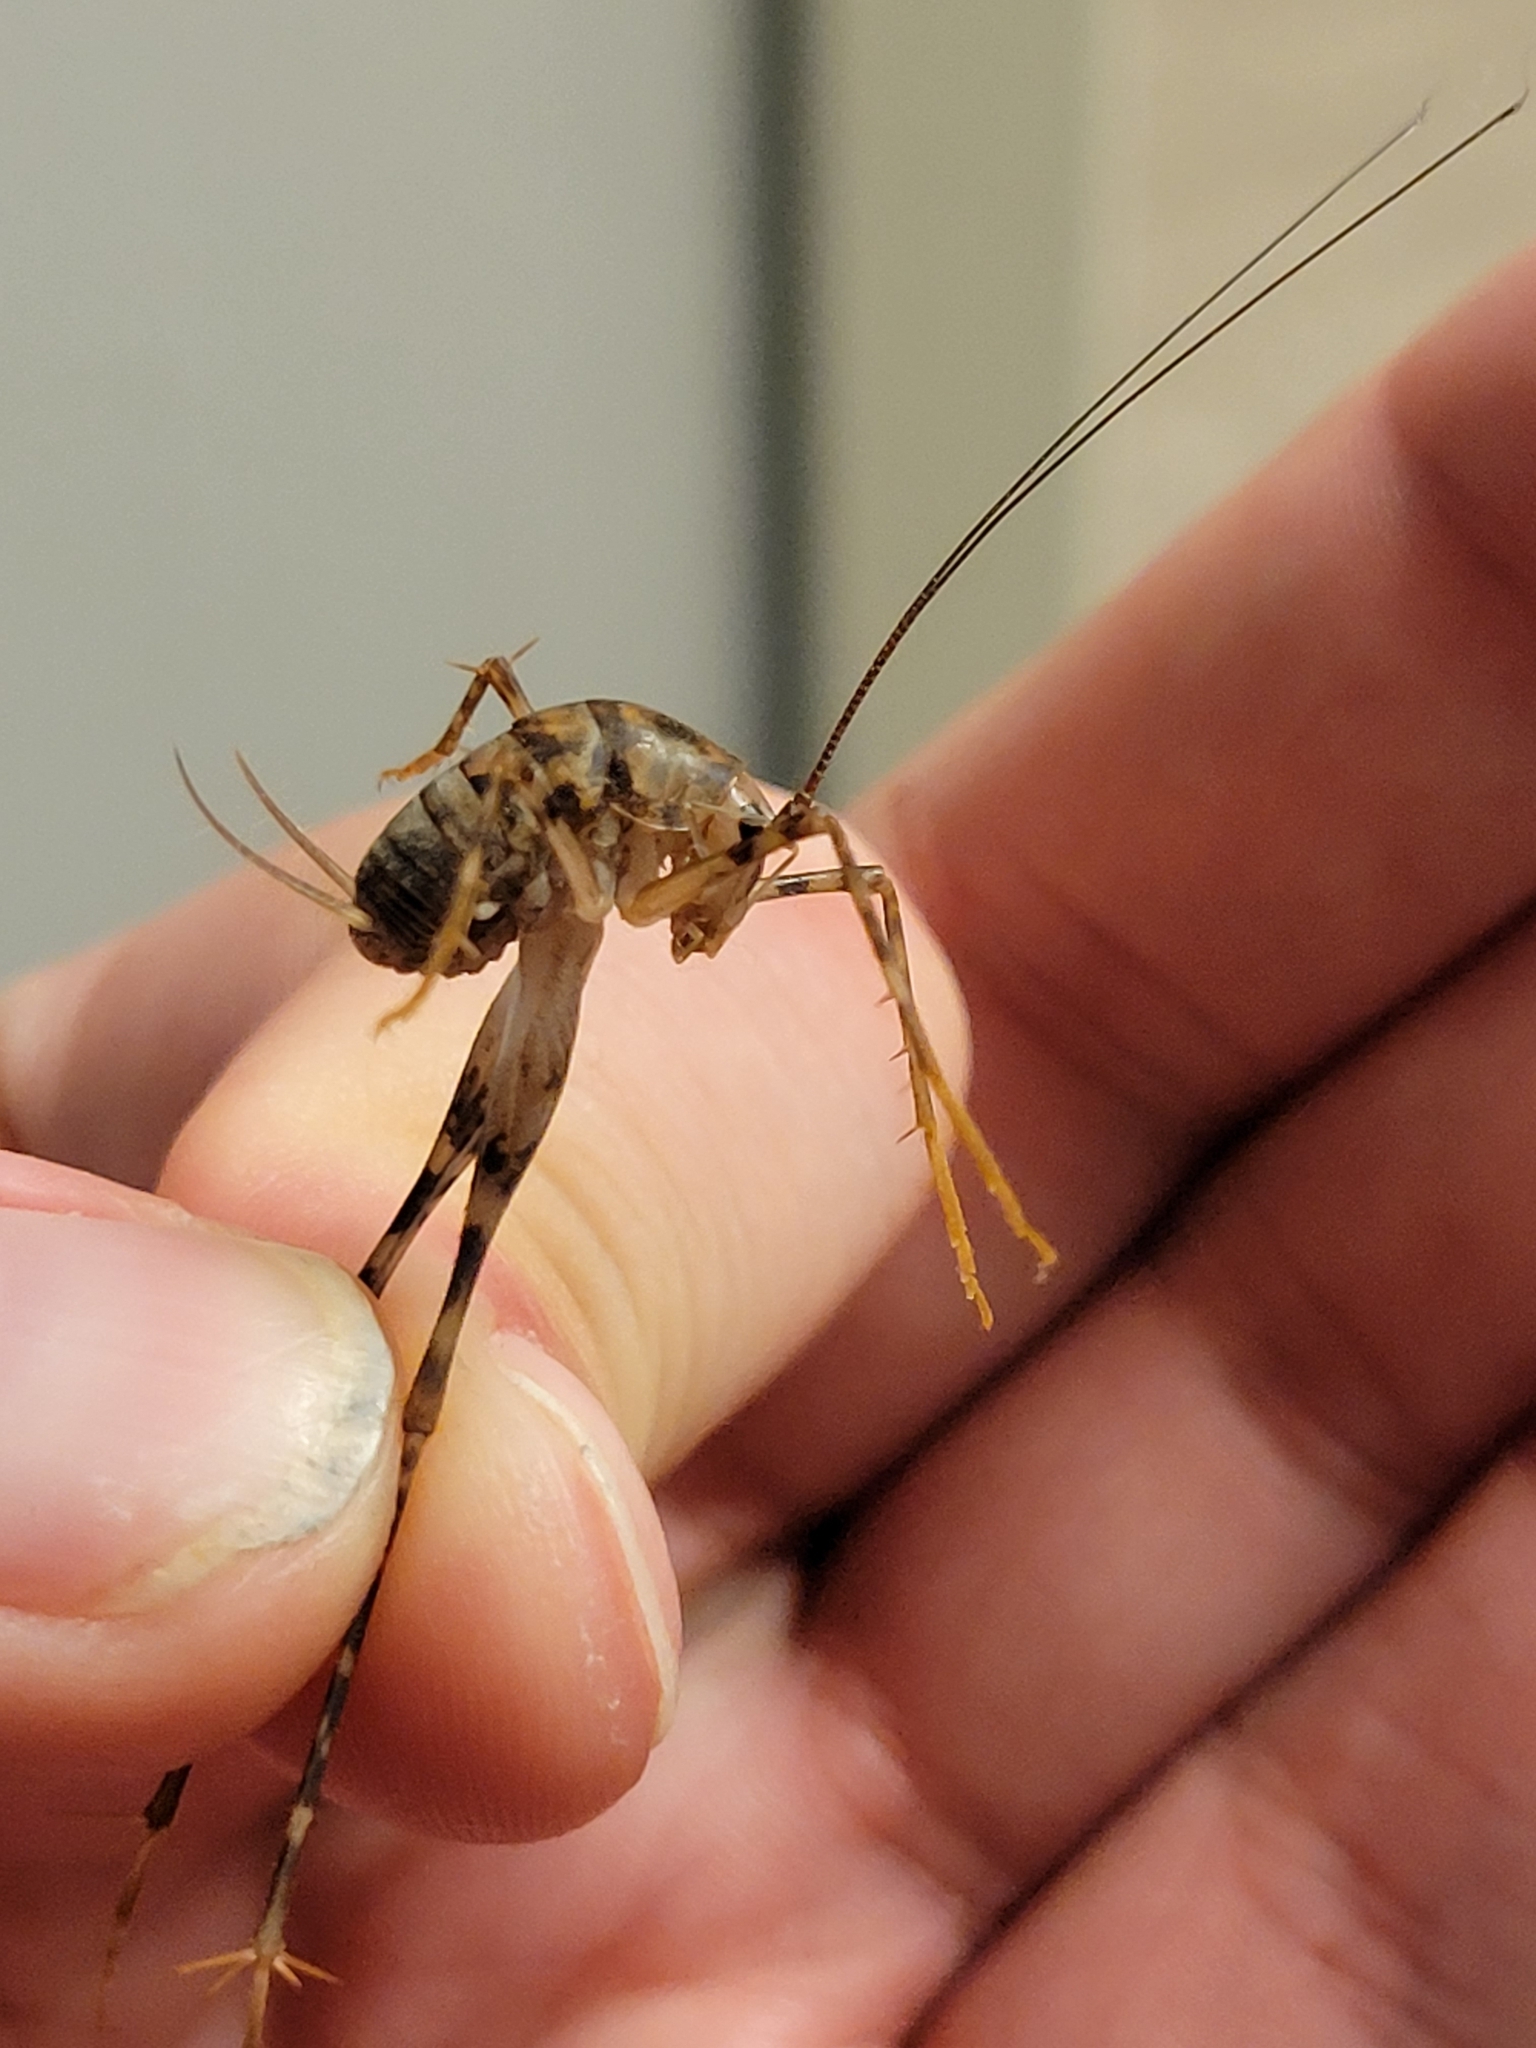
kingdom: Animalia
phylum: Arthropoda
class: Insecta
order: Orthoptera
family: Rhaphidophoridae
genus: Tachycines
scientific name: Tachycines asynamorus
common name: Greenhouse camel cricket
